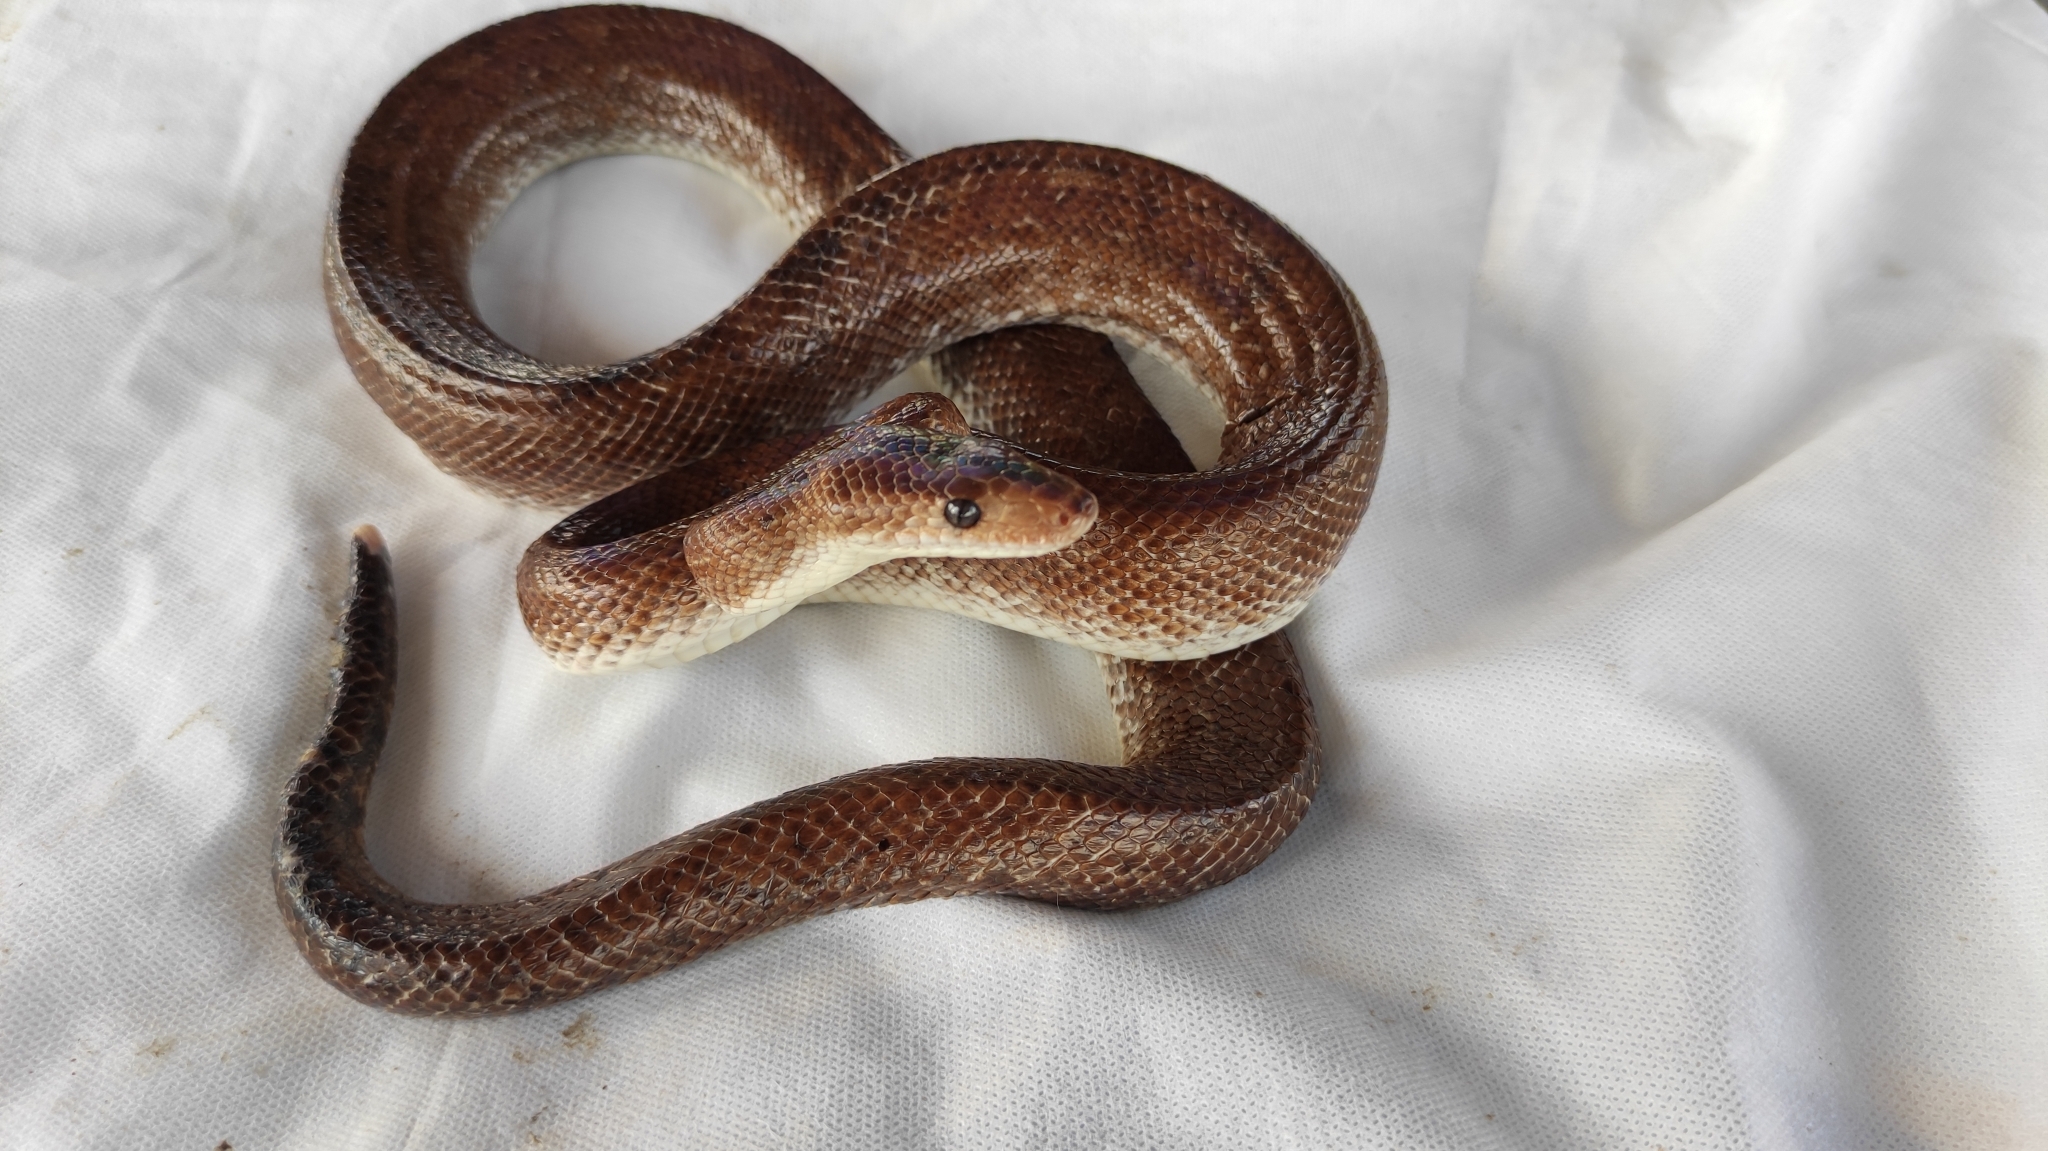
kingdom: Animalia
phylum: Chordata
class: Squamata
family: Boidae
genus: Epicrates
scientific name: Epicrates maurus
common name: Brown rainbow boa
